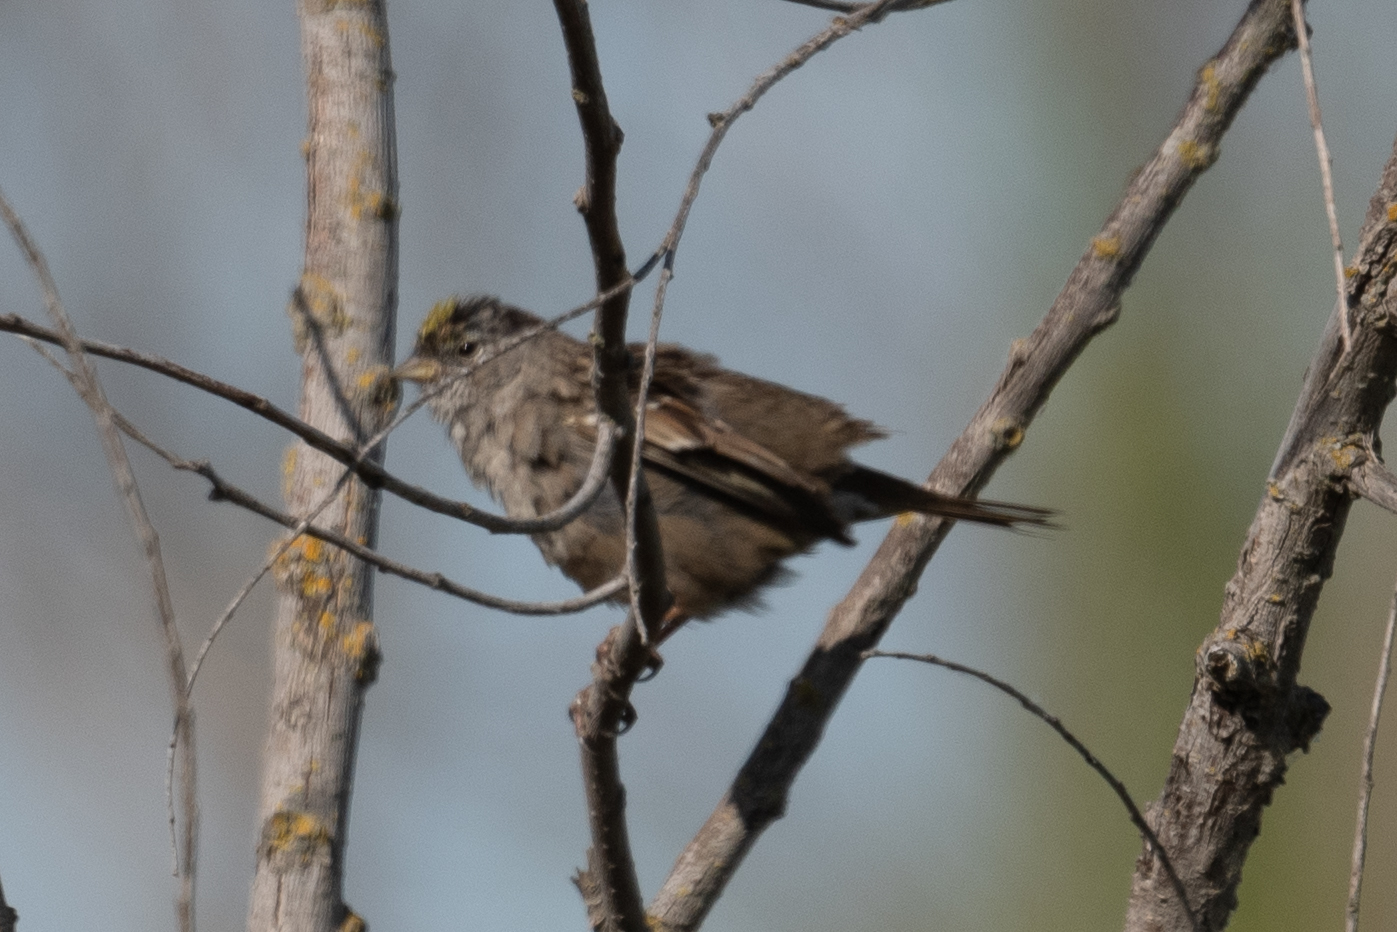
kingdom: Animalia
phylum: Chordata
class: Aves
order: Passeriformes
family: Passerellidae
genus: Zonotrichia
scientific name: Zonotrichia atricapilla
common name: Golden-crowned sparrow
